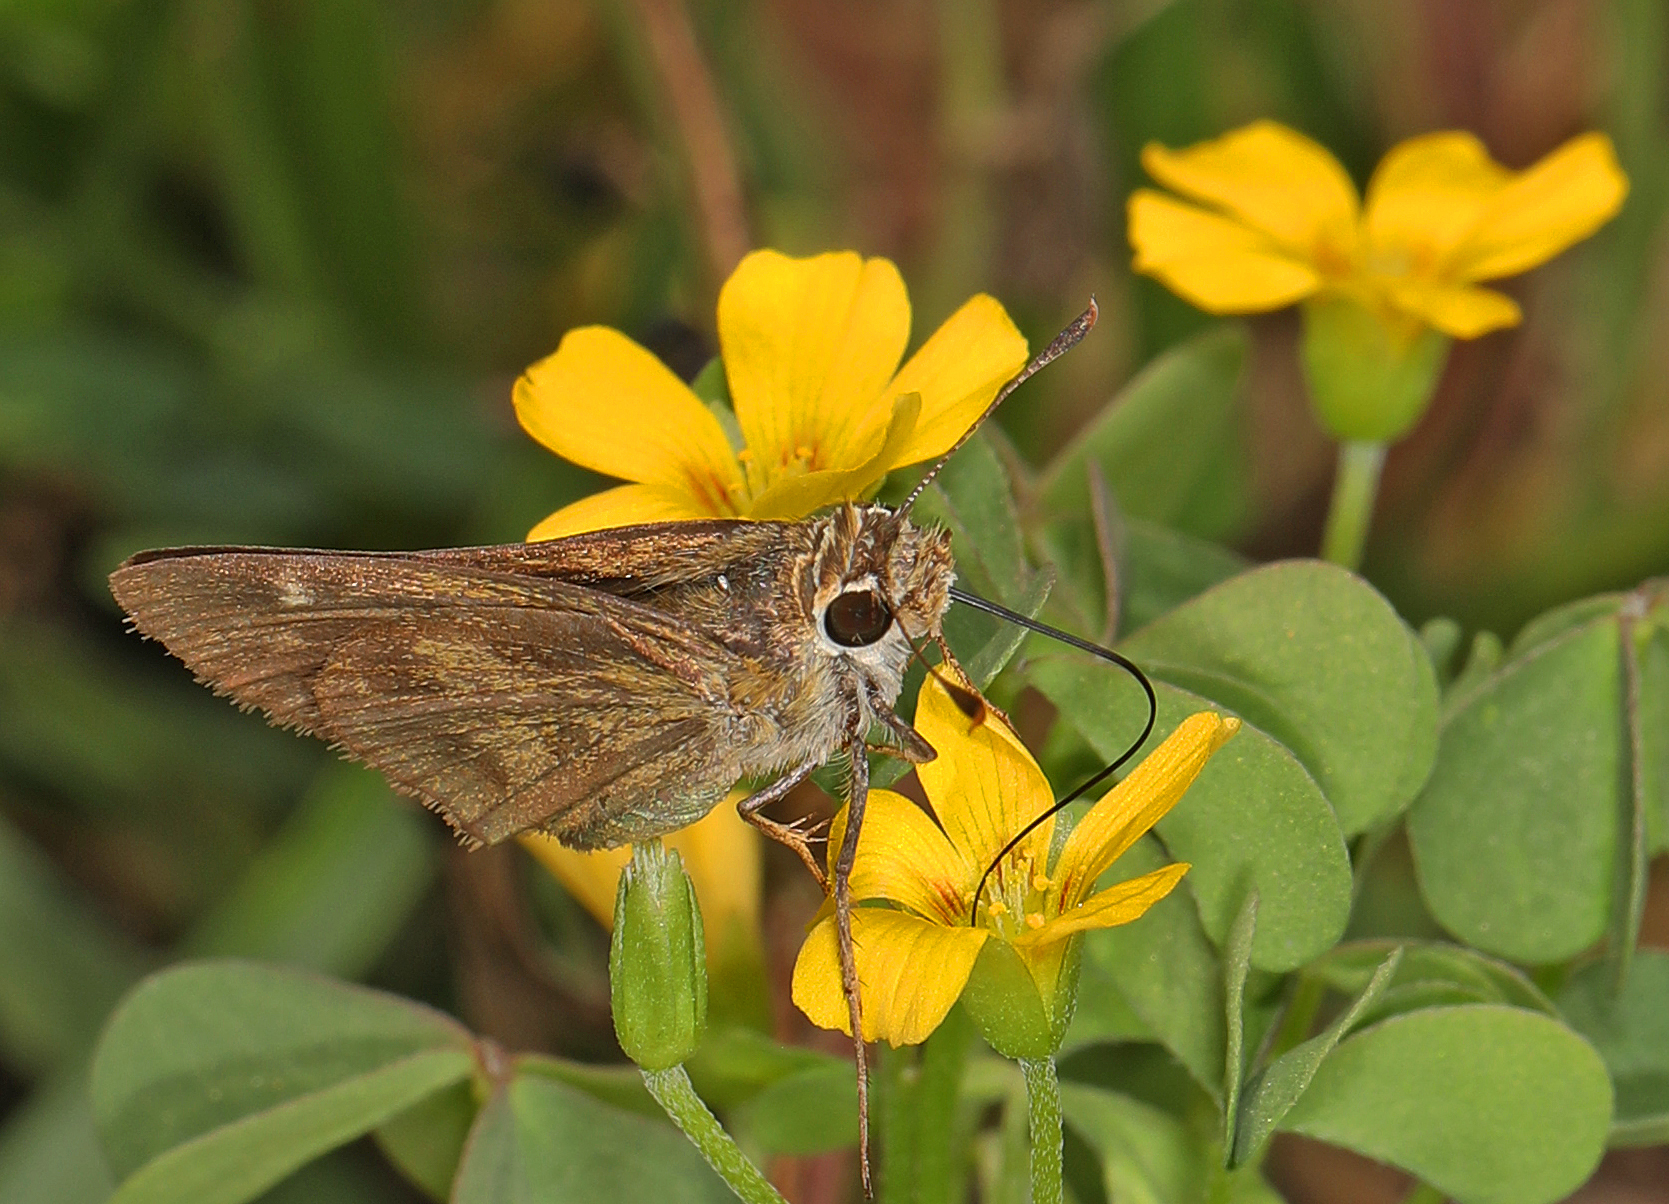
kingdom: Animalia
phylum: Arthropoda
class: Insecta
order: Lepidoptera
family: Hesperiidae
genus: Polites
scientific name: Polites vibex
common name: Whirlabout
